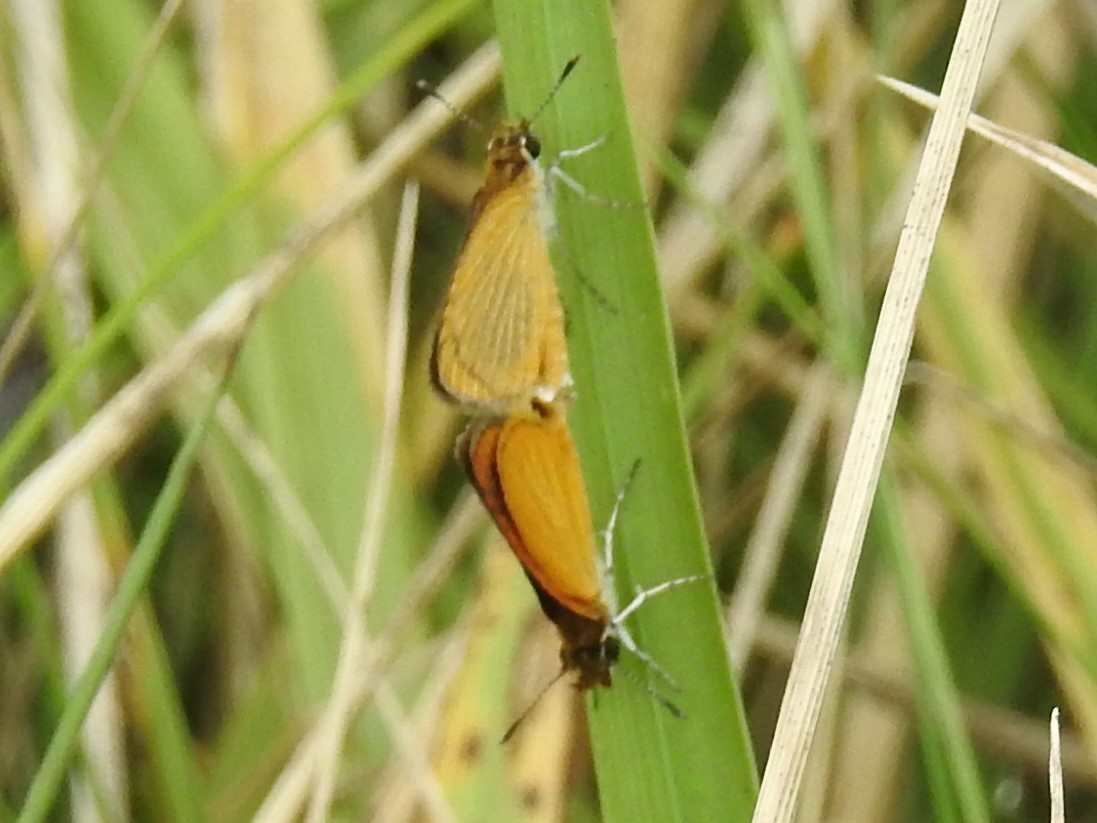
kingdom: Animalia
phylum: Arthropoda
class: Insecta
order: Lepidoptera
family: Hesperiidae
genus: Ancyloxypha
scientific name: Ancyloxypha numitor
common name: Least skipper
